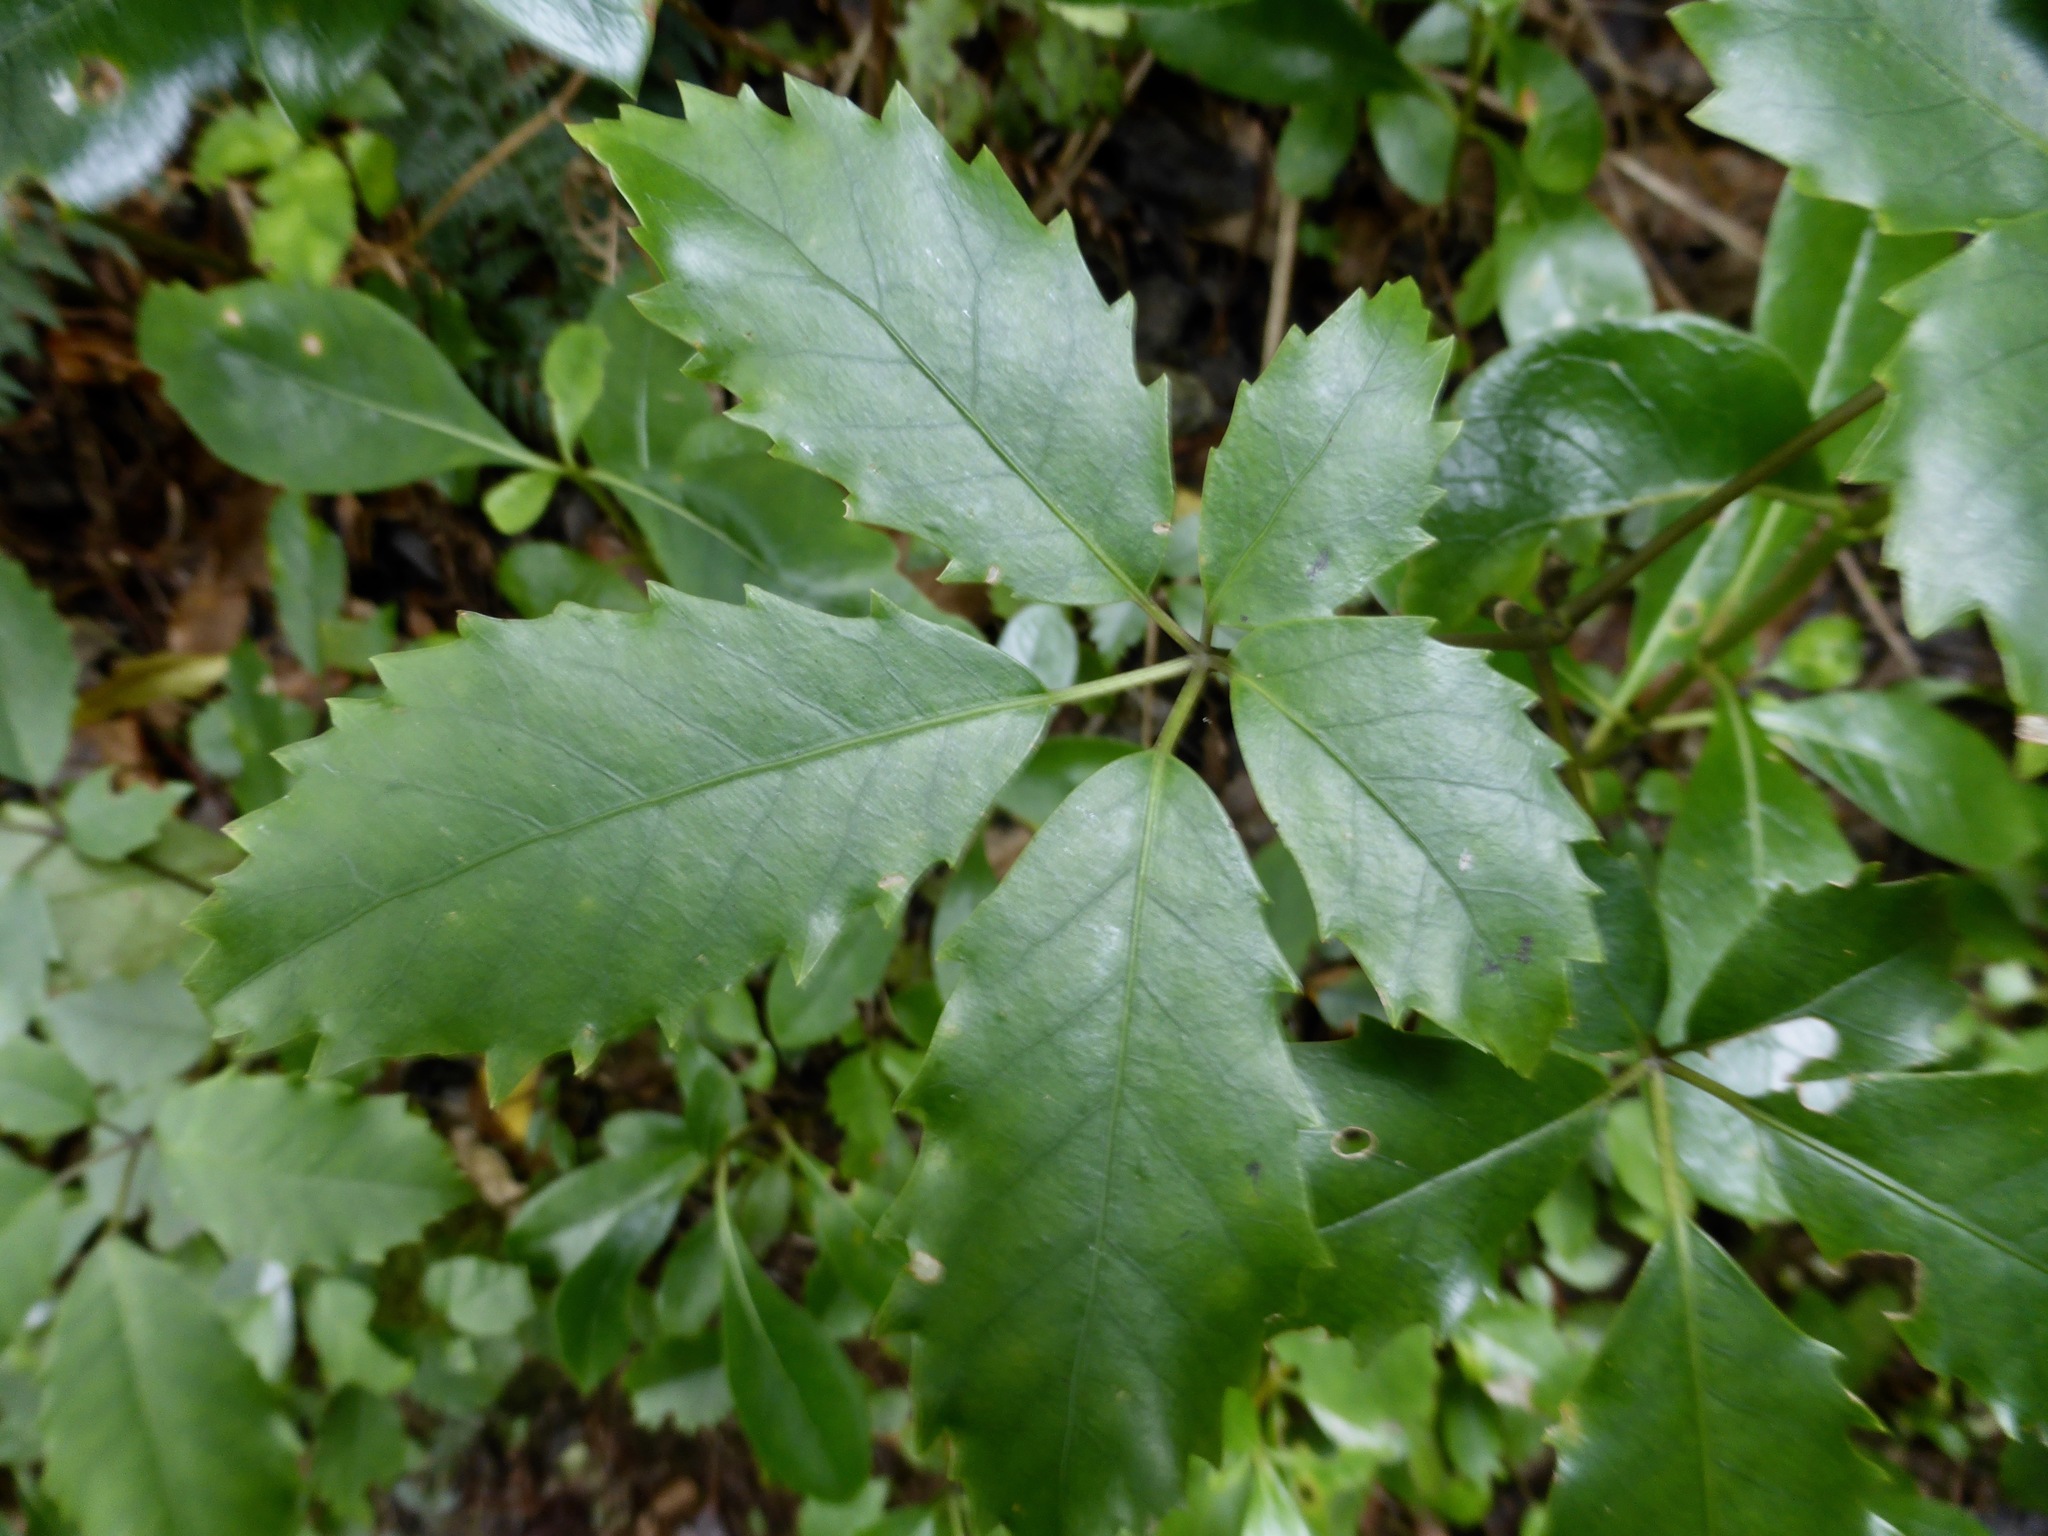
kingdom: Plantae
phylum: Tracheophyta
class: Magnoliopsida
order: Apiales
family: Araliaceae
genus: Neopanax
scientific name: Neopanax arboreus
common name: Five-fingers
